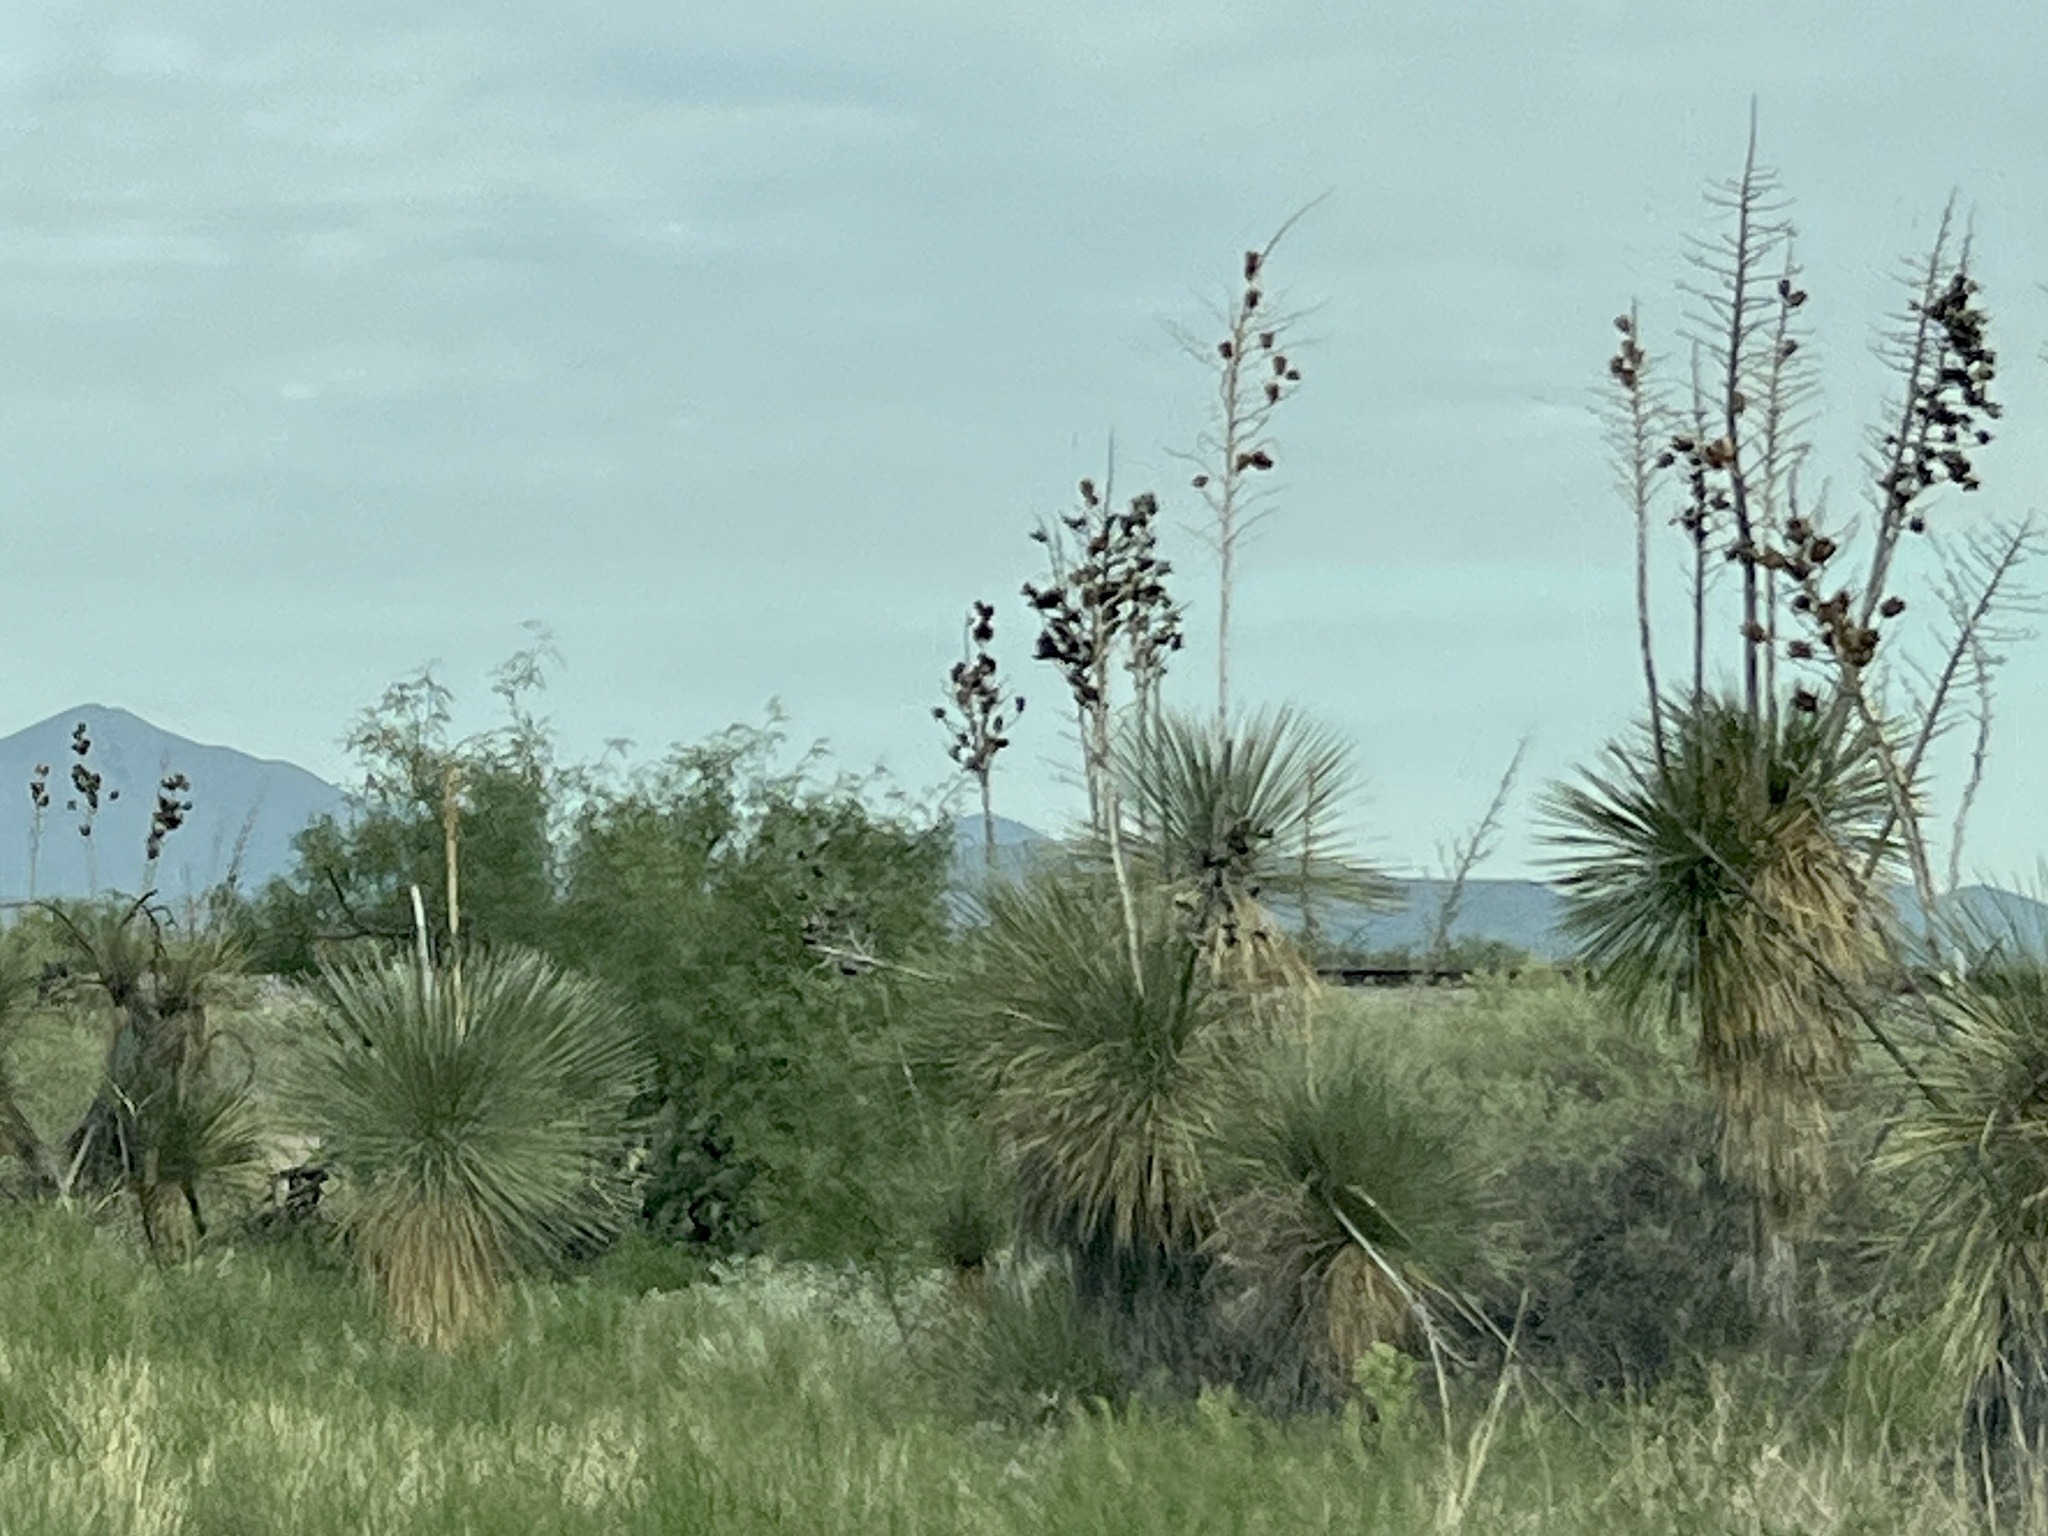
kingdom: Plantae
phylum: Tracheophyta
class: Liliopsida
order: Asparagales
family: Asparagaceae
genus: Yucca
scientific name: Yucca elata
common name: Palmella
